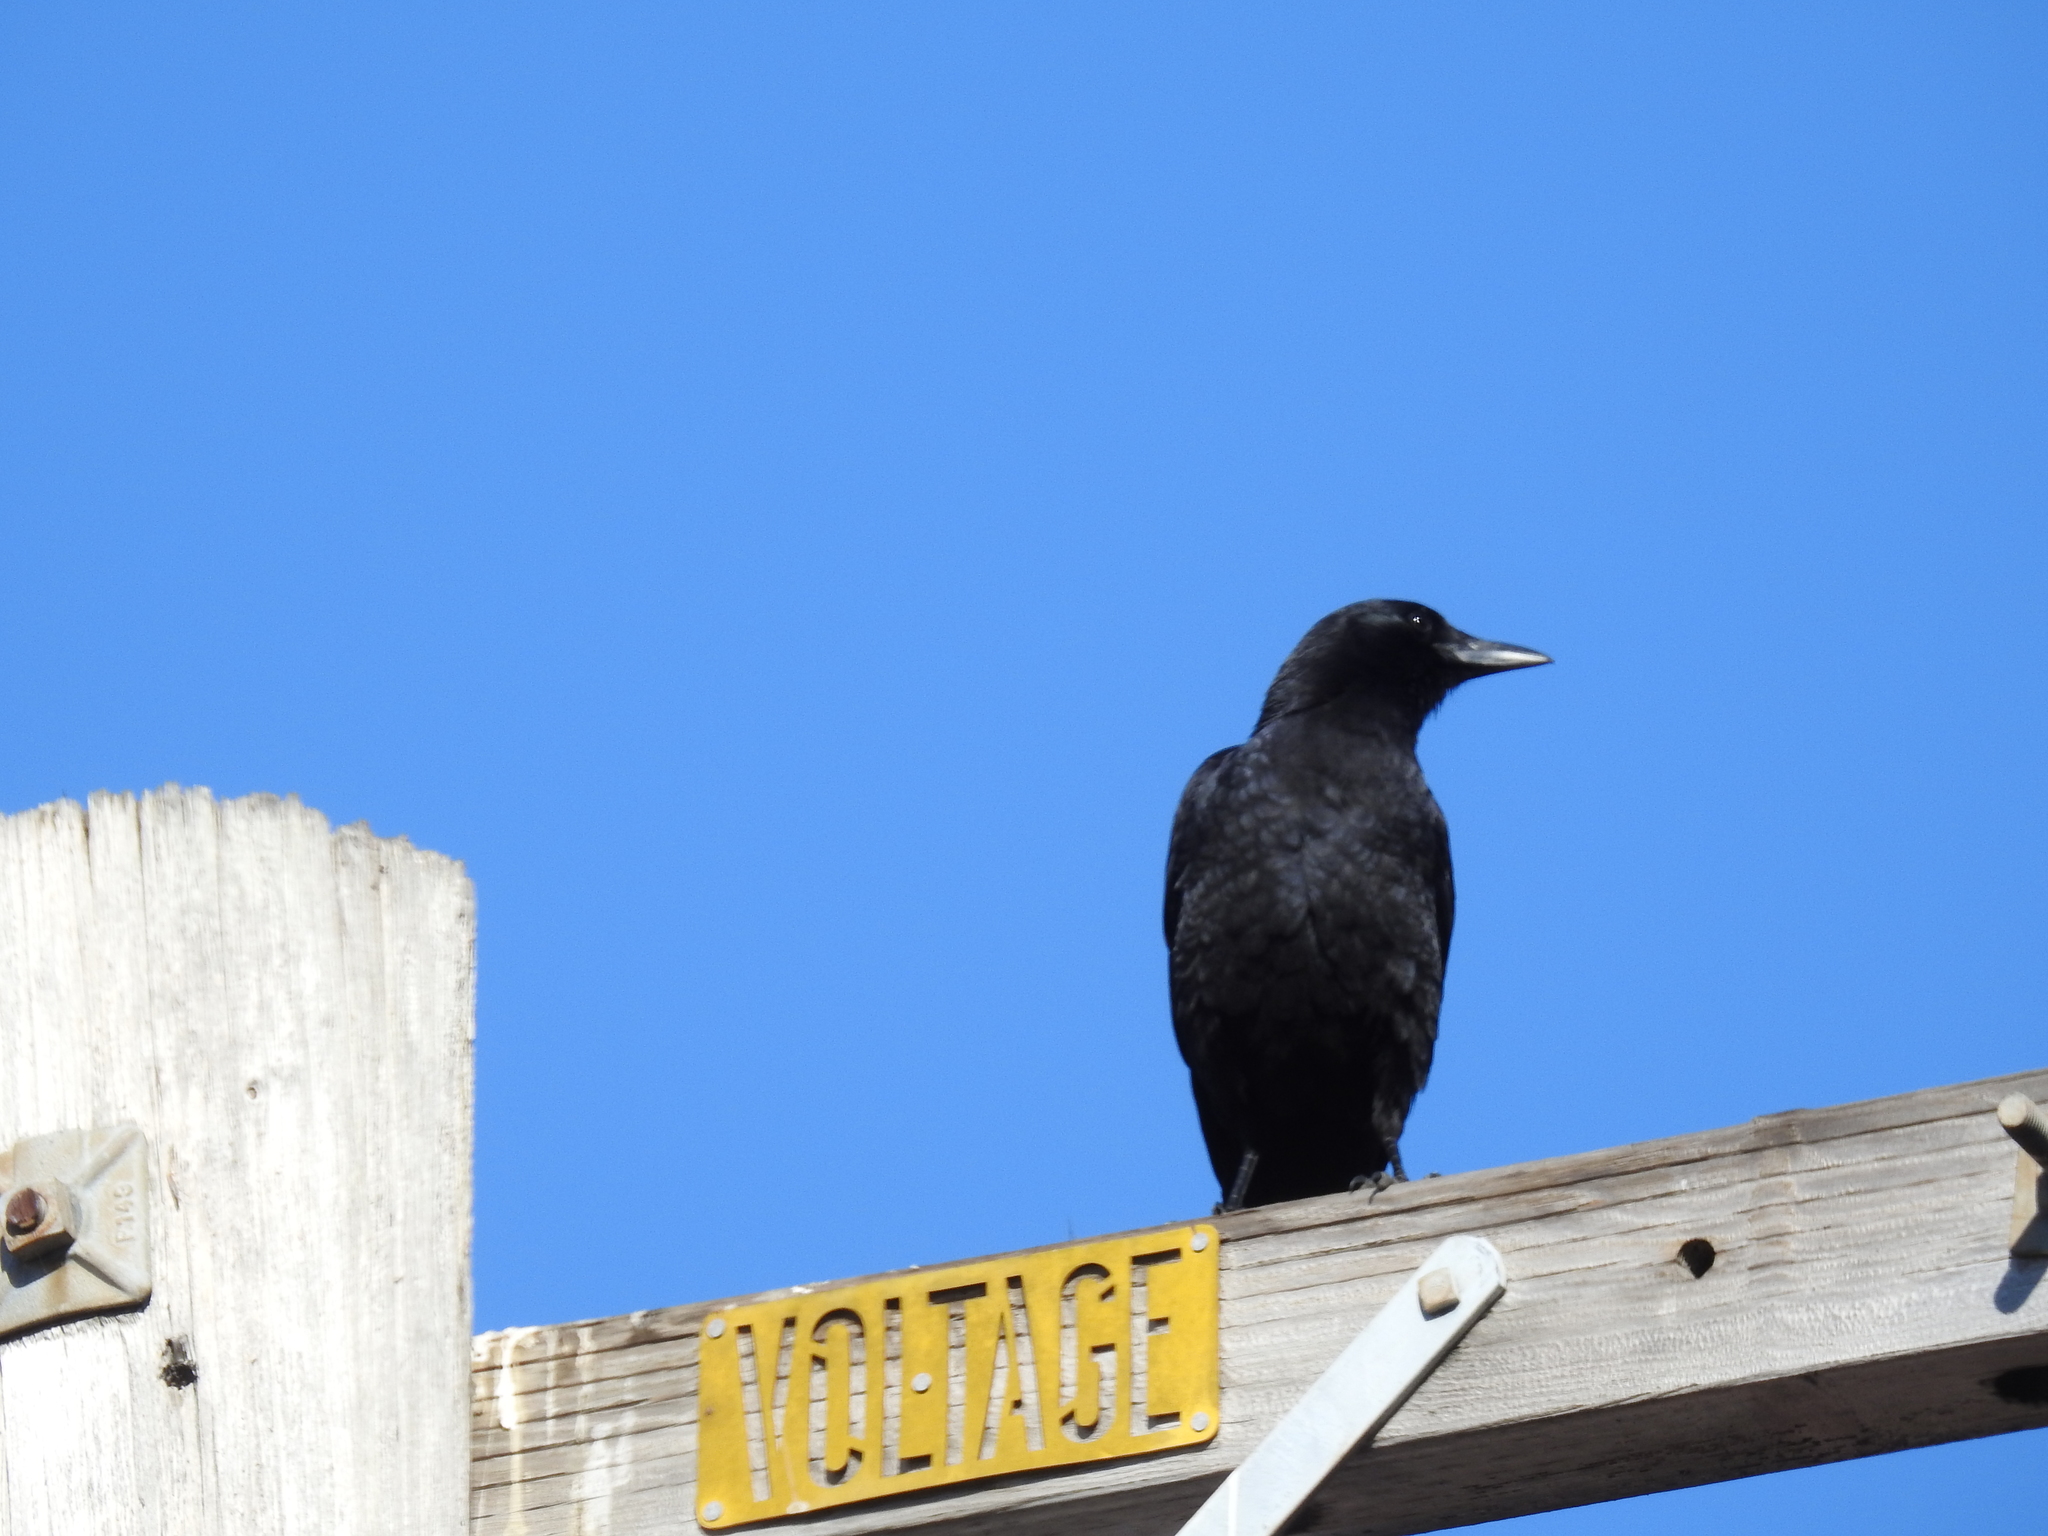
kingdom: Animalia
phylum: Chordata
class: Aves
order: Passeriformes
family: Corvidae
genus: Corvus
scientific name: Corvus brachyrhynchos
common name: American crow
